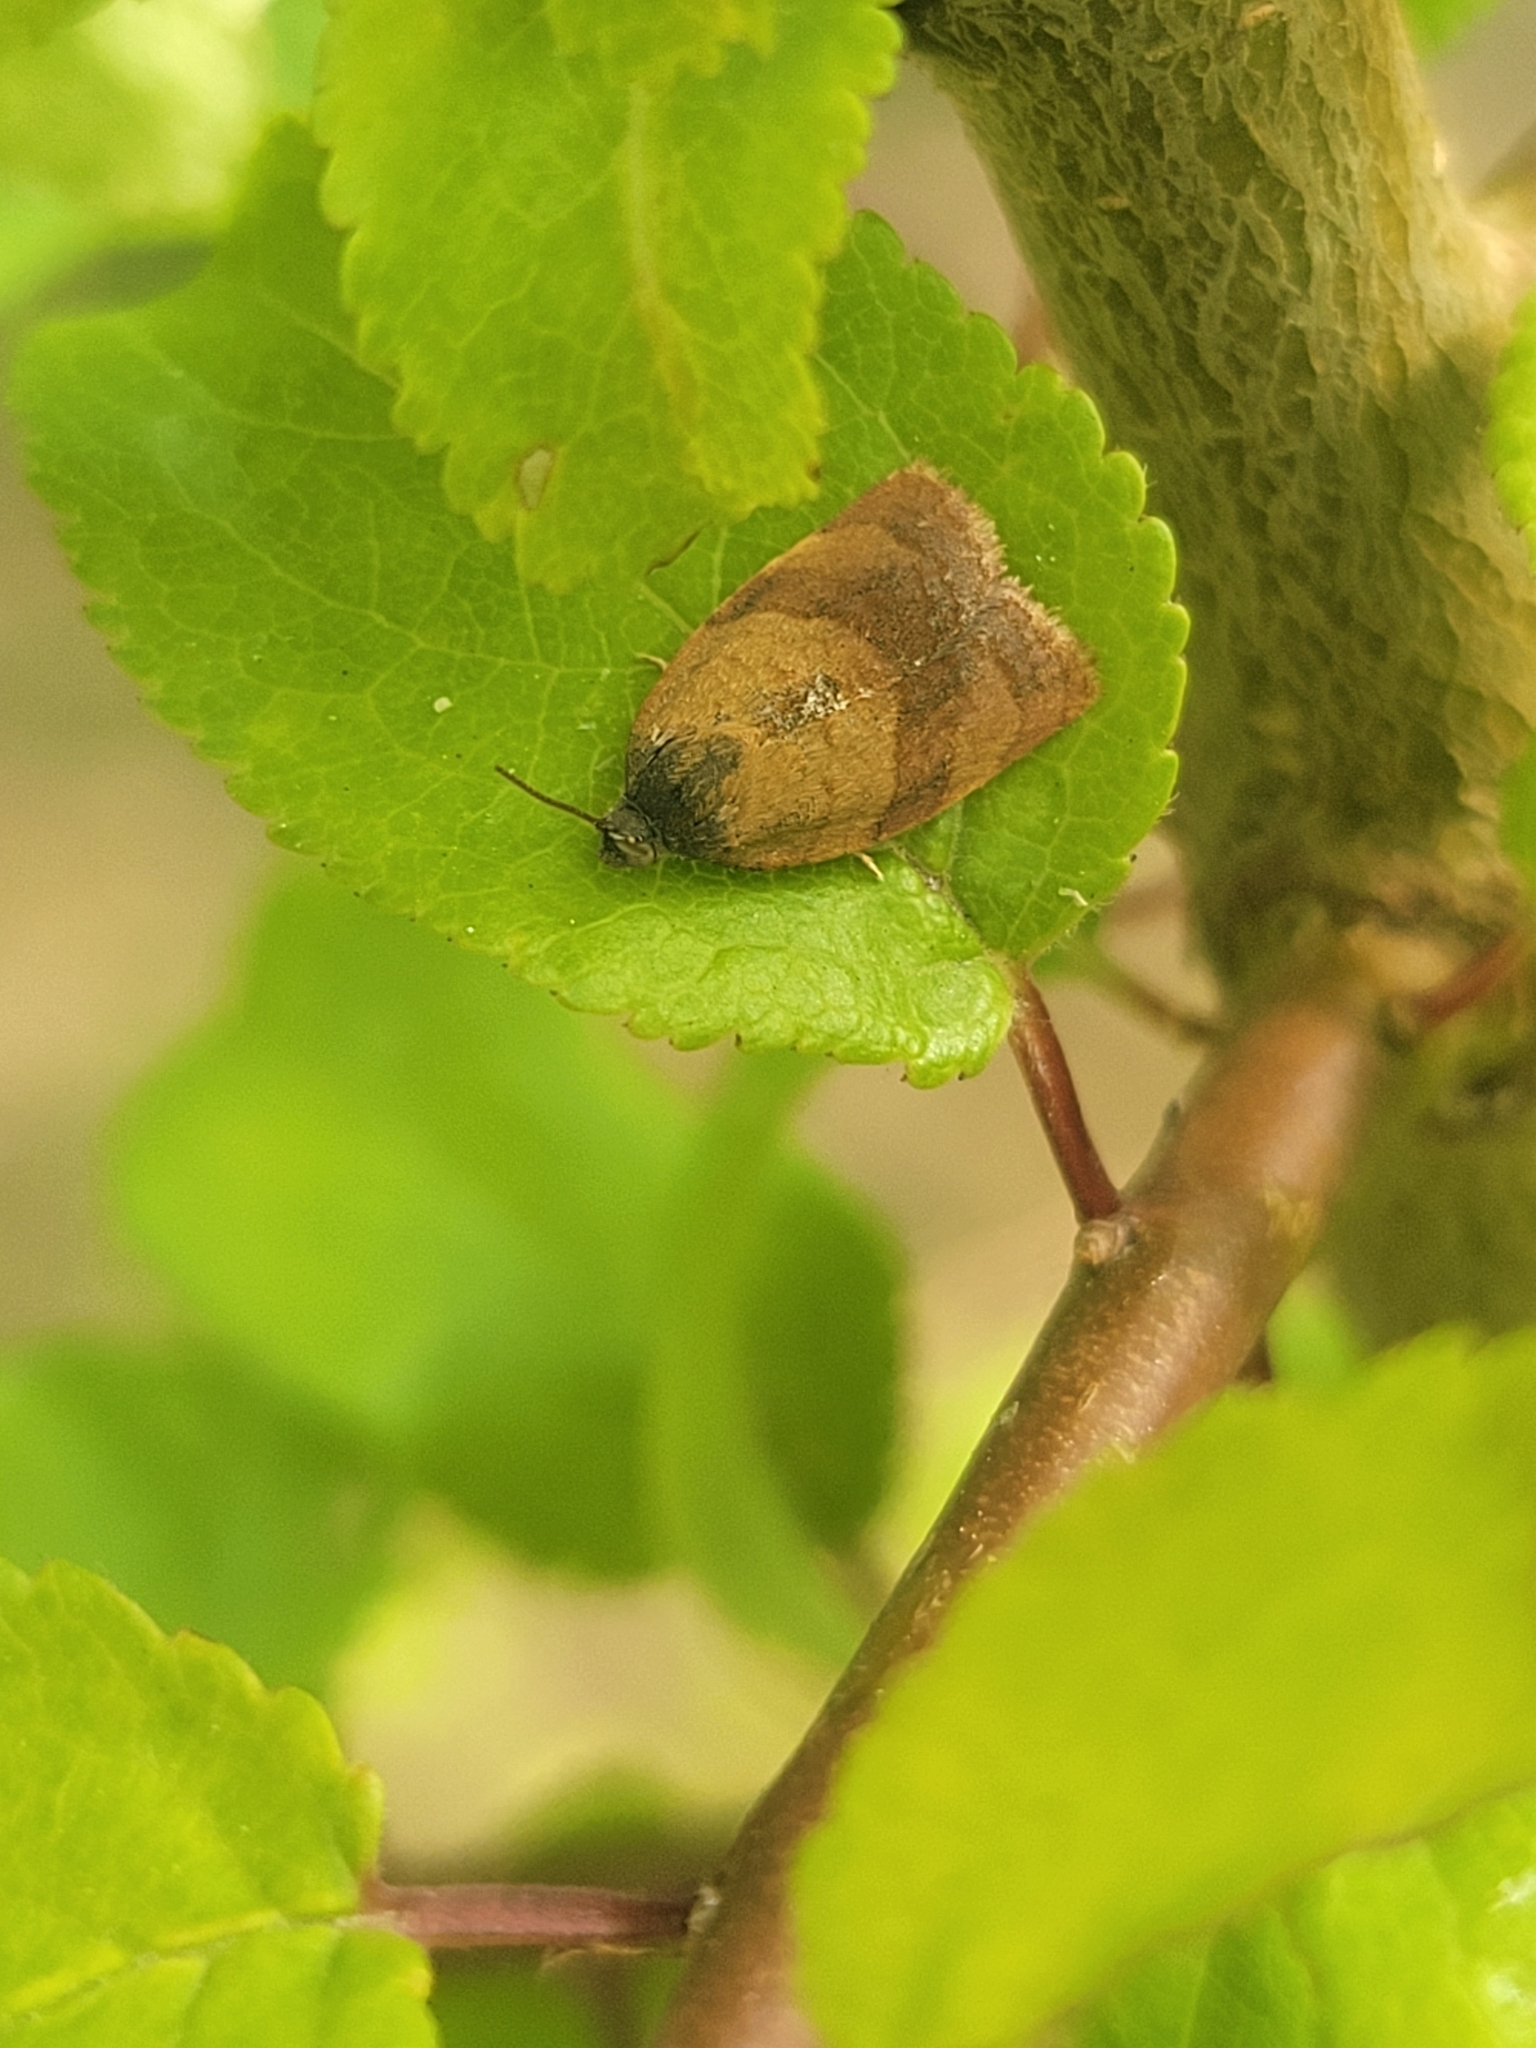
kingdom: Animalia
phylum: Arthropoda
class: Insecta
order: Lepidoptera
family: Tortricidae
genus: Cacoecimorpha
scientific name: Cacoecimorpha pronubana
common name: Carnation tortrix
